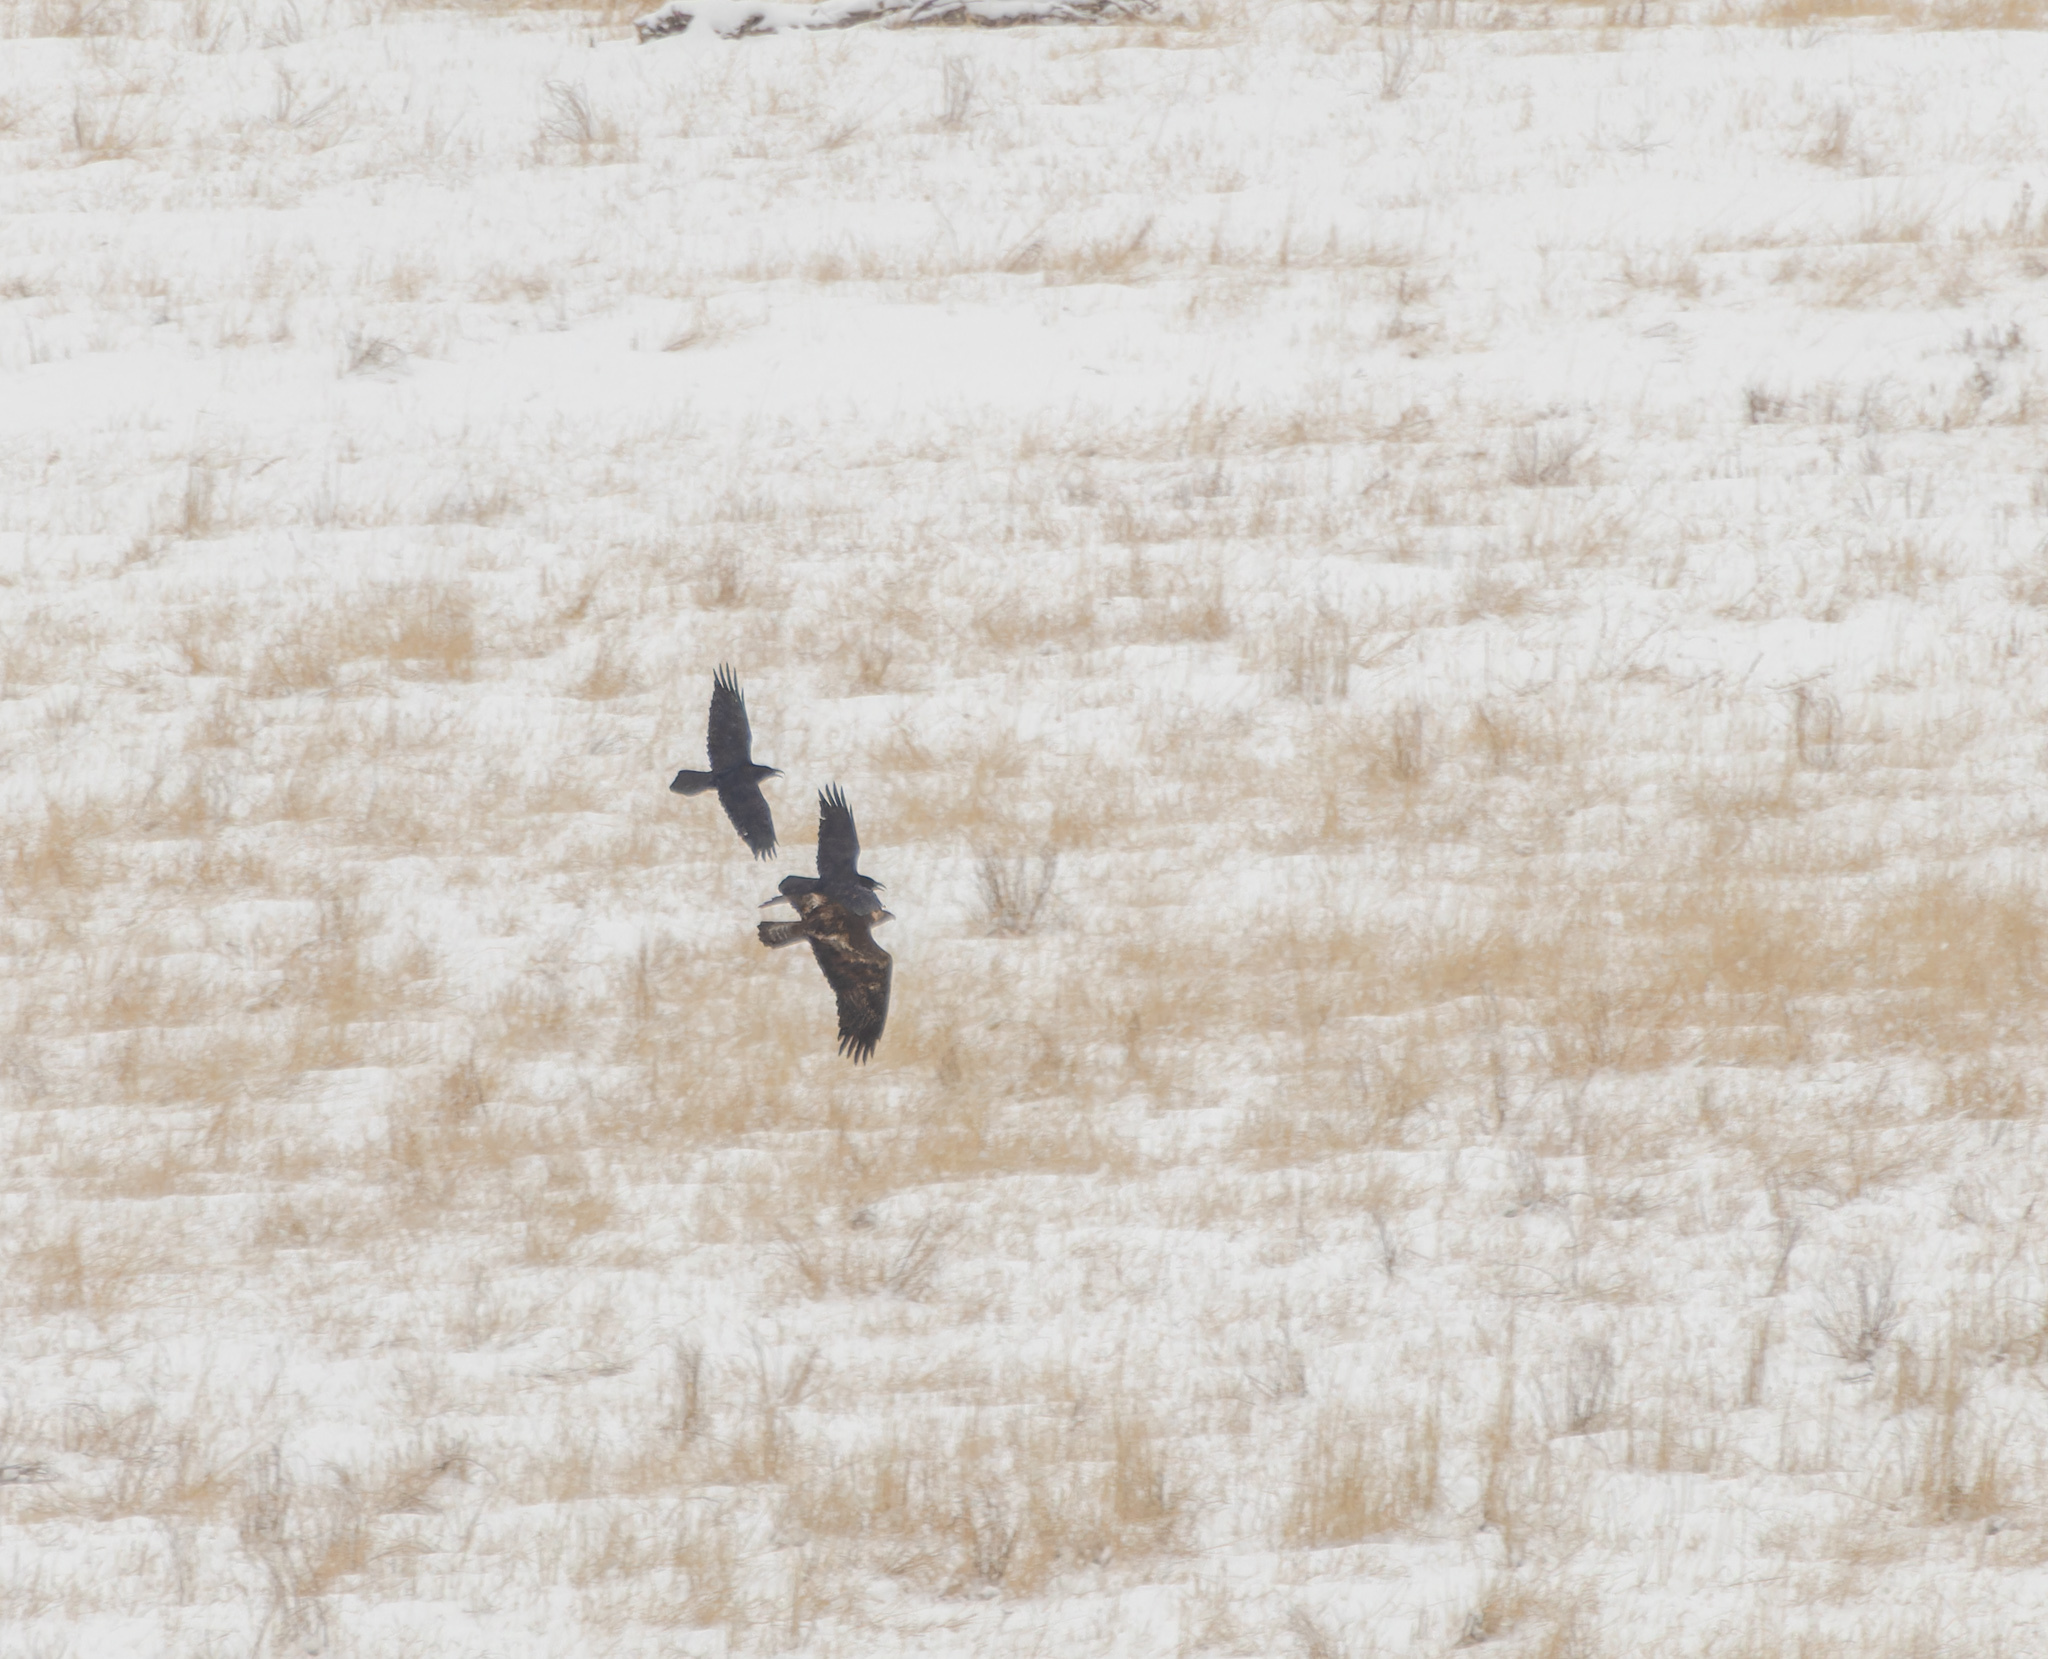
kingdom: Animalia
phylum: Chordata
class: Aves
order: Accipitriformes
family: Accipitridae
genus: Aquila
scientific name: Aquila chrysaetos
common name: Golden eagle
